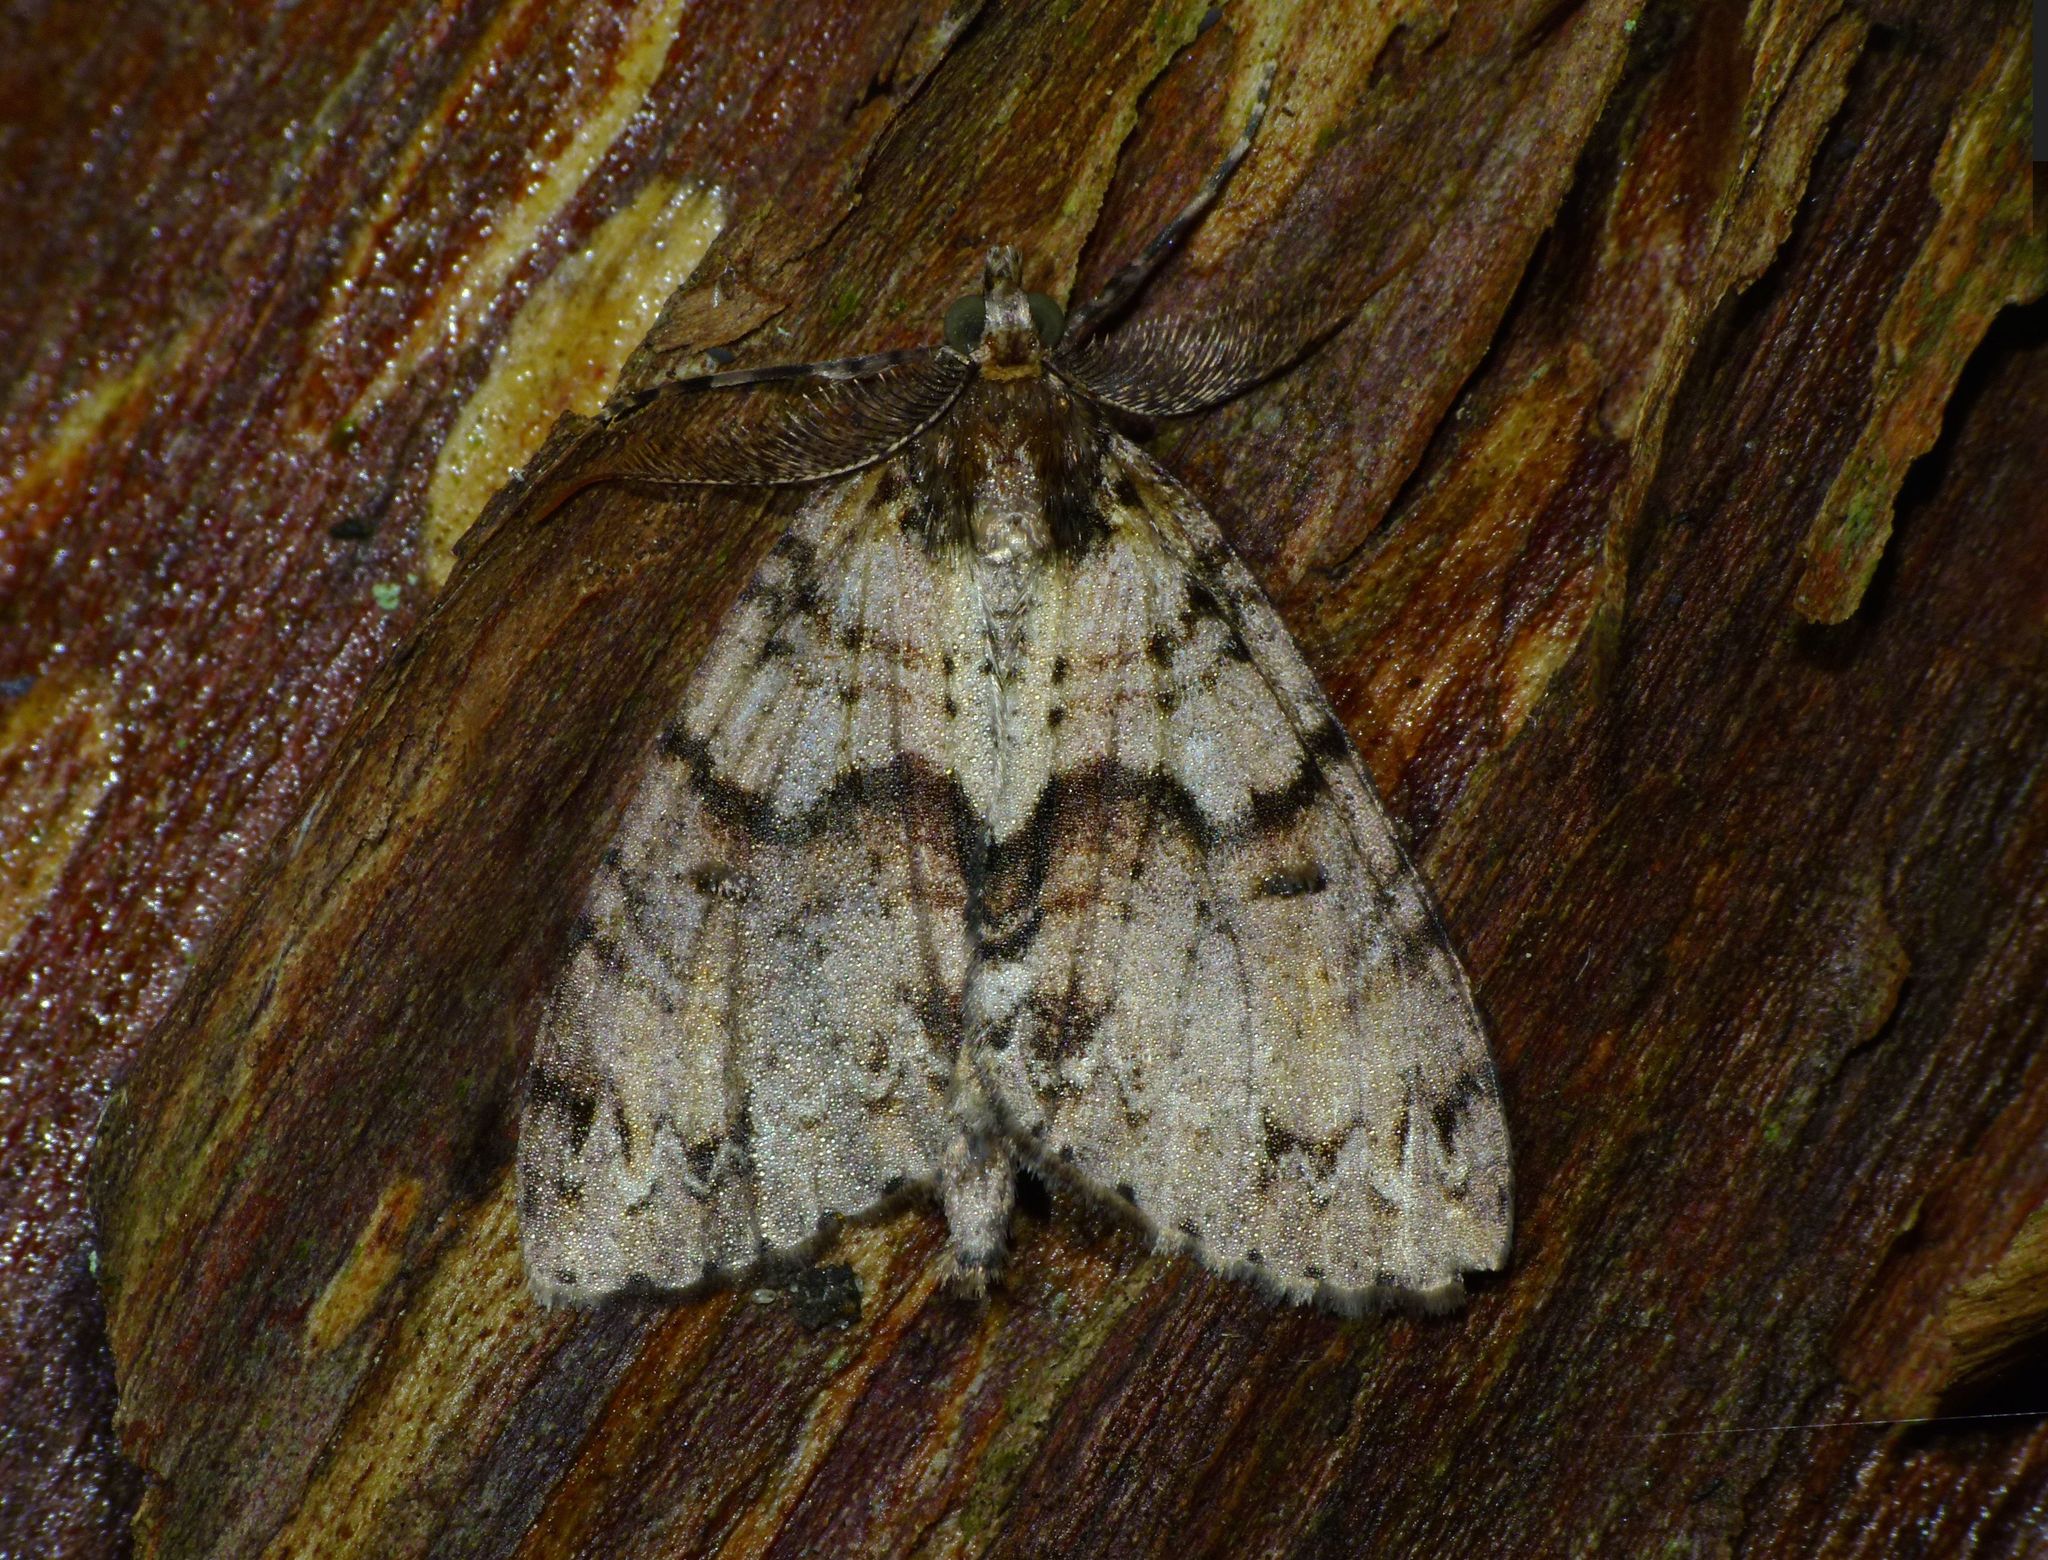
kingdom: Animalia
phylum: Arthropoda
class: Insecta
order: Lepidoptera
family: Geometridae
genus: Pseudocoremia
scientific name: Pseudocoremia suavis
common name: Common forest looper
